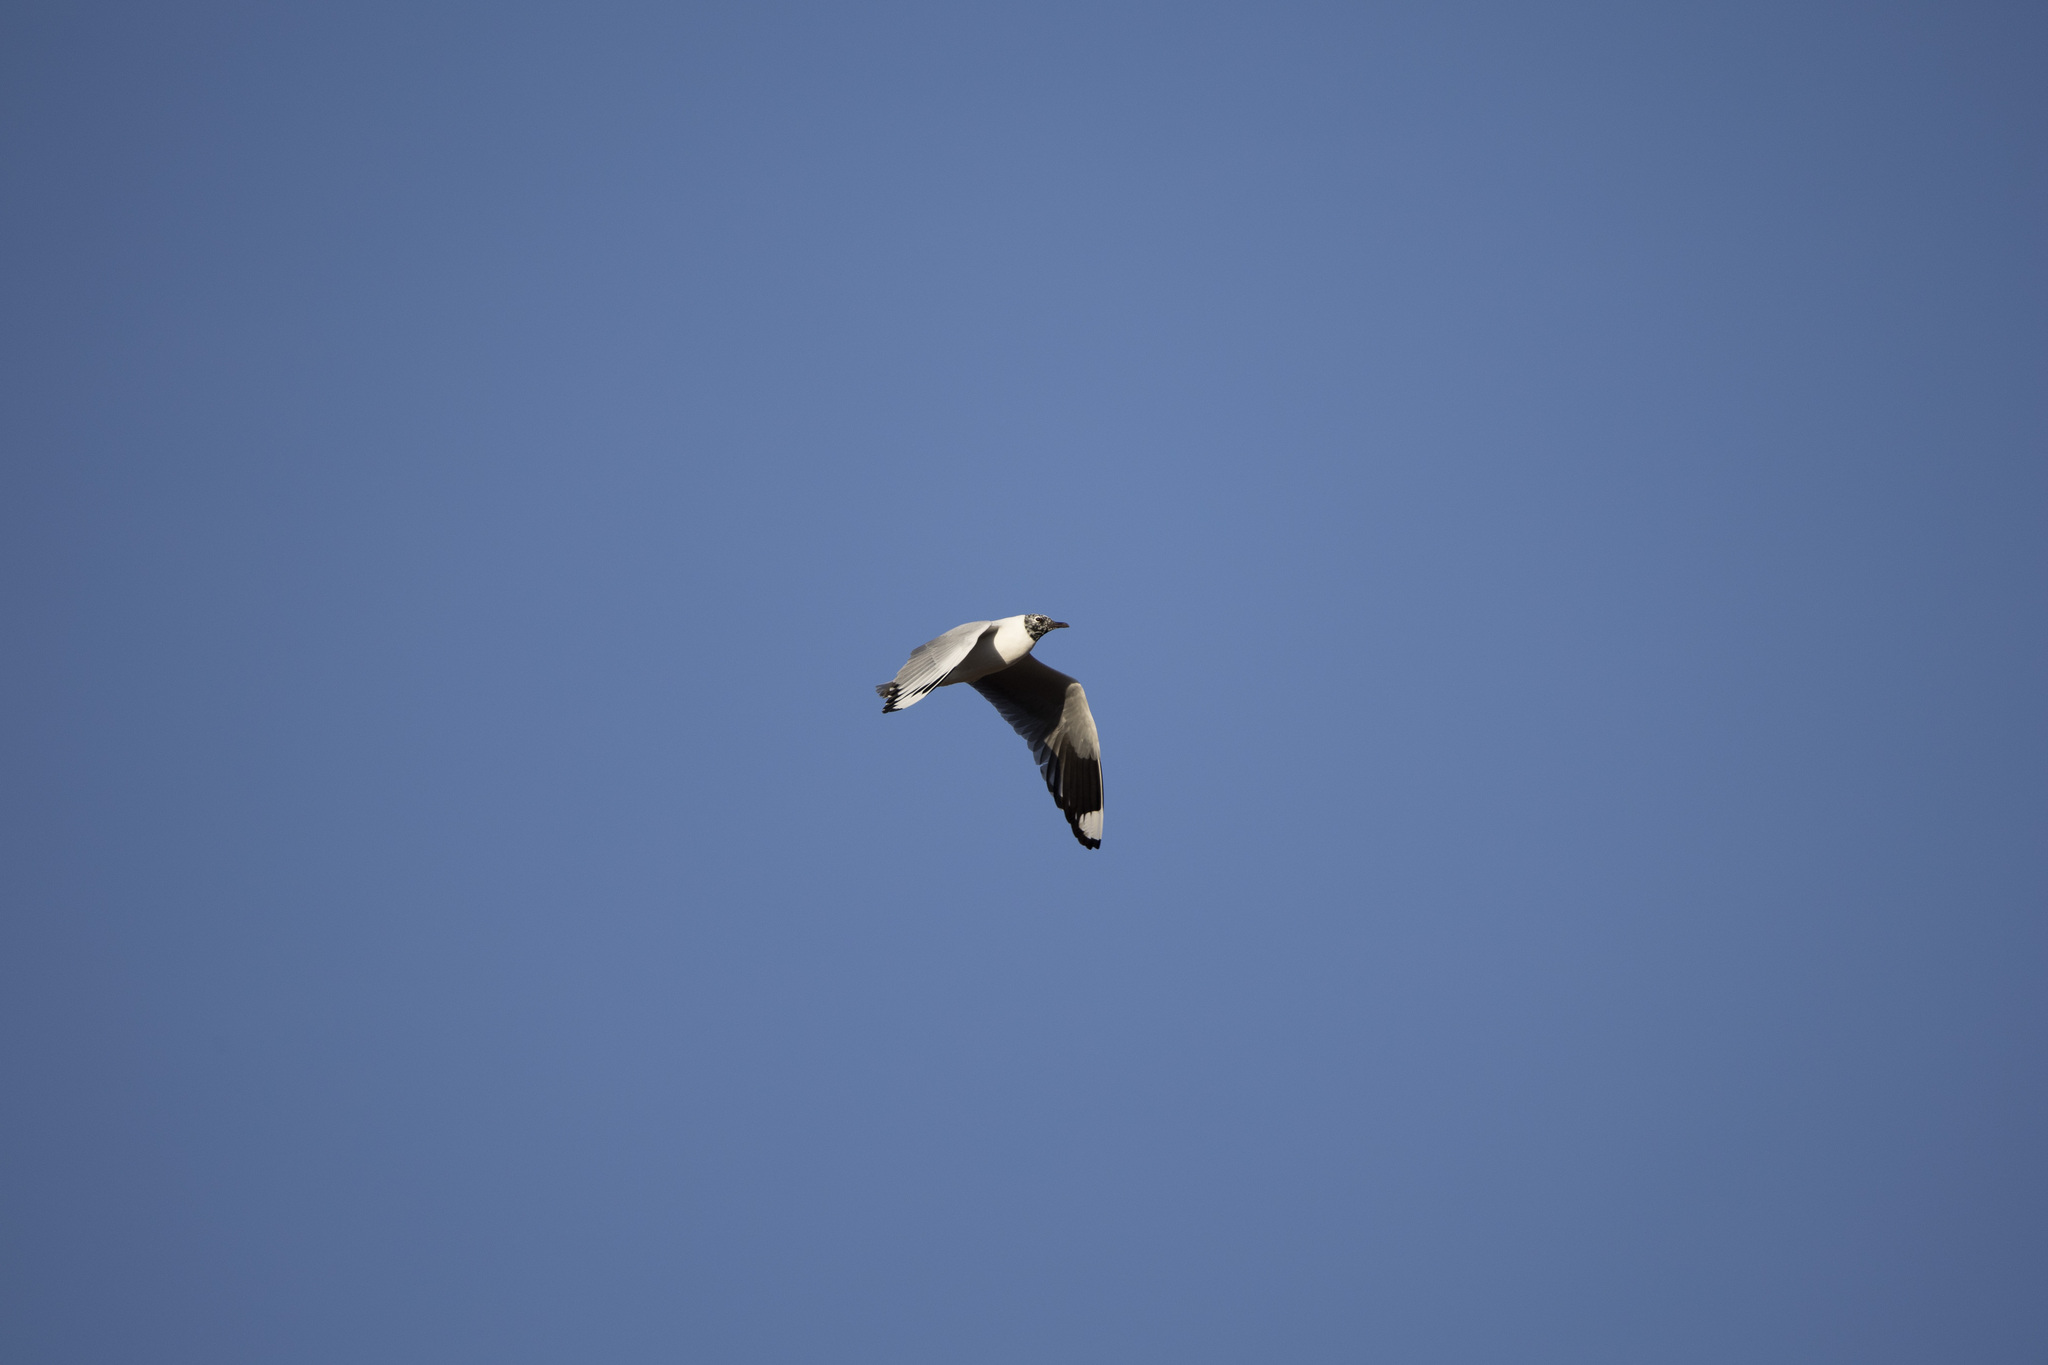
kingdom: Animalia
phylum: Chordata
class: Aves
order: Charadriiformes
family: Laridae
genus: Chroicocephalus
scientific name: Chroicocephalus serranus
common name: Andean gull
